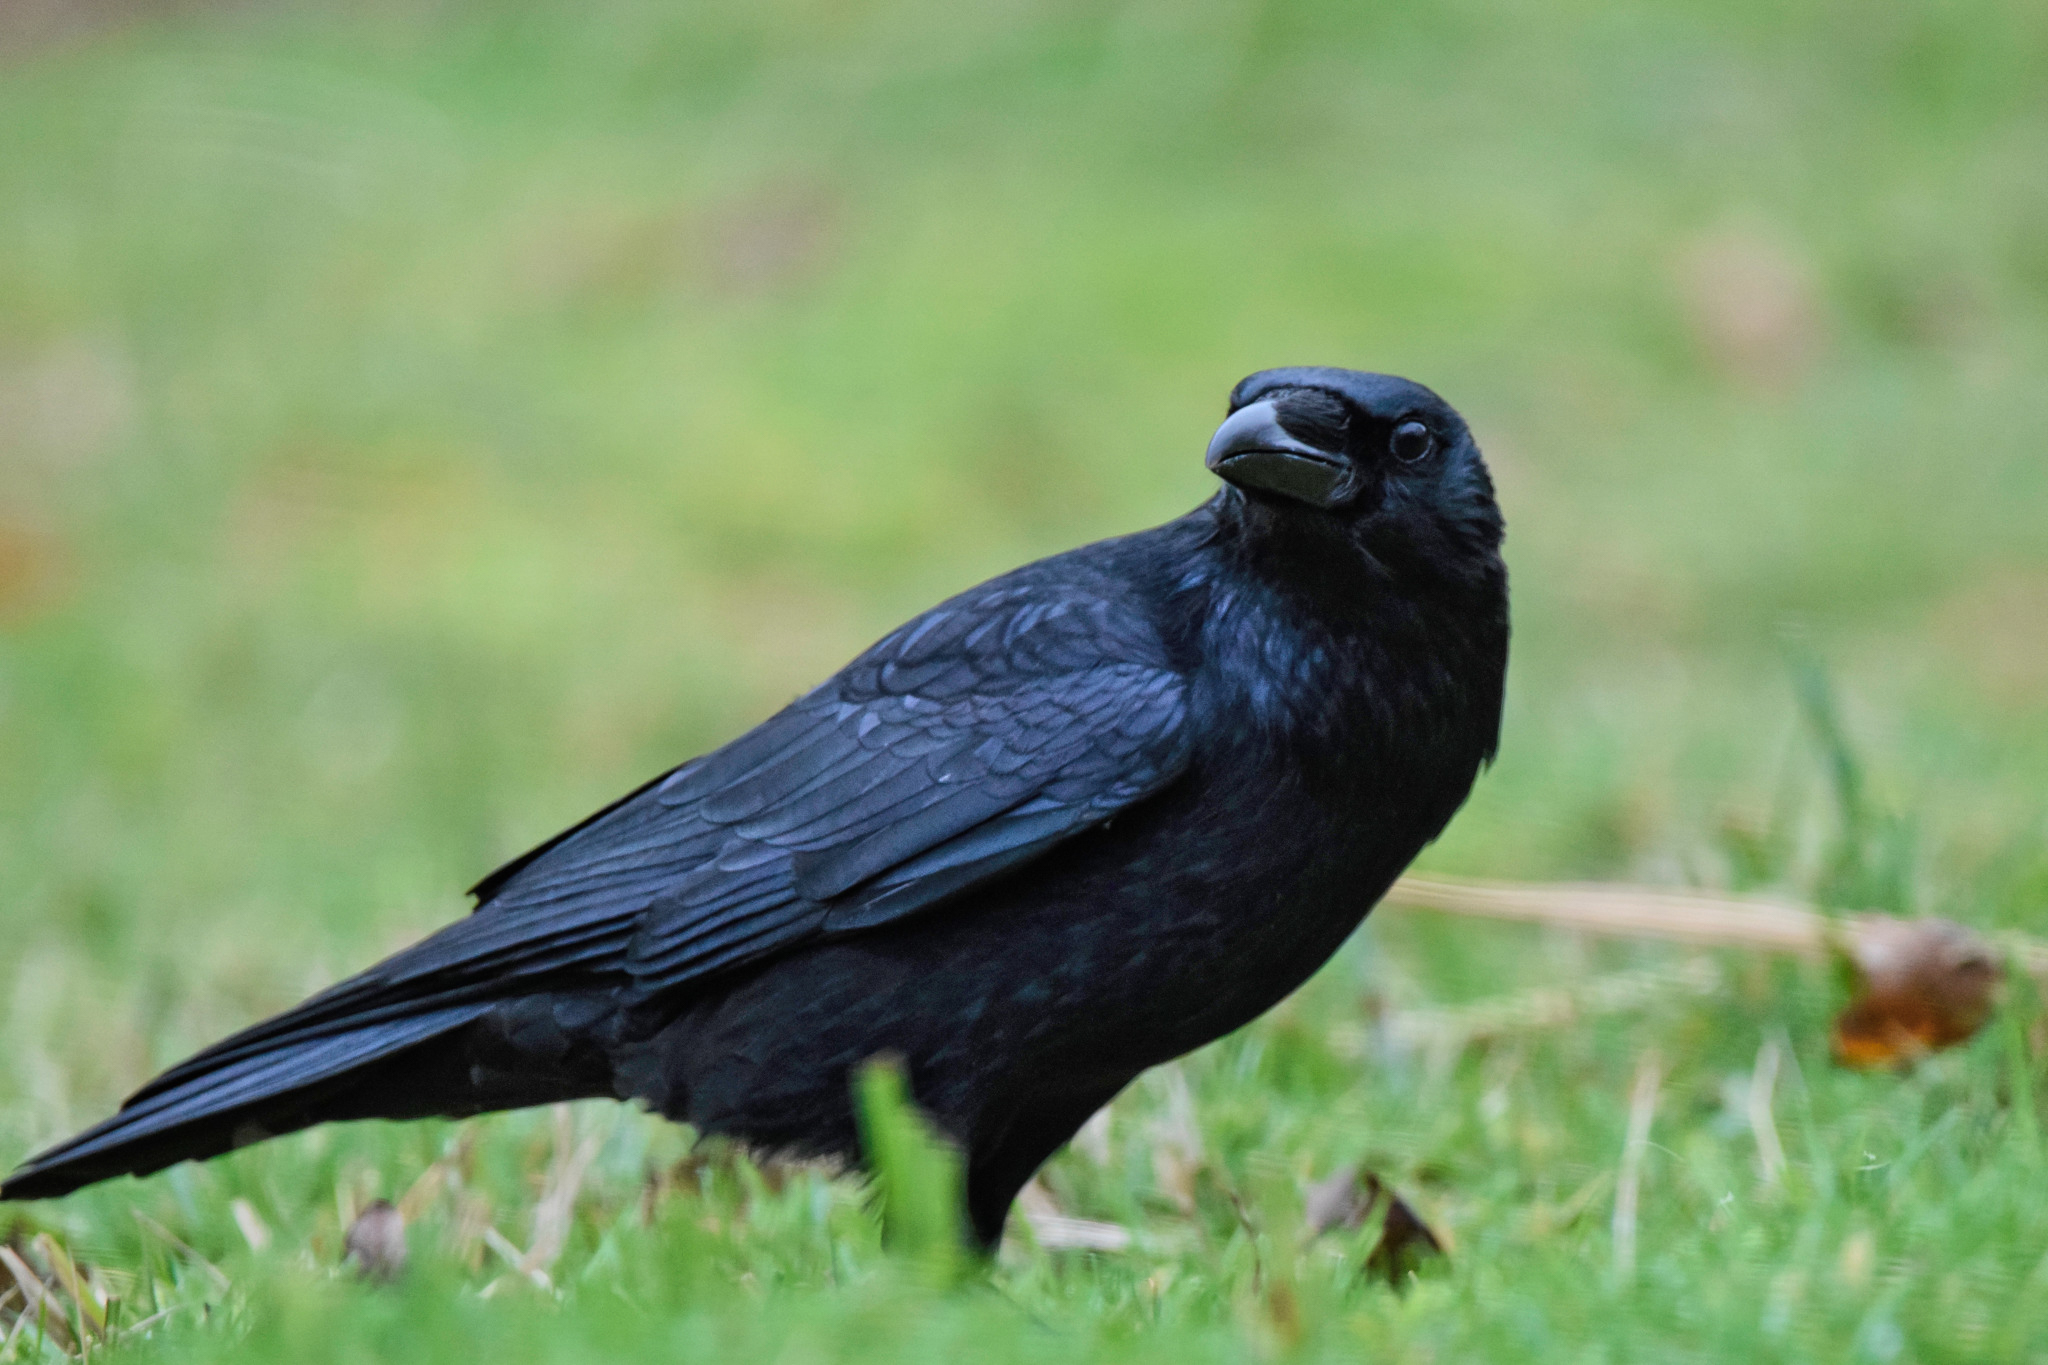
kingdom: Animalia
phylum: Chordata
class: Aves
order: Passeriformes
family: Corvidae
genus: Corvus
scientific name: Corvus corone
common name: Carrion crow
